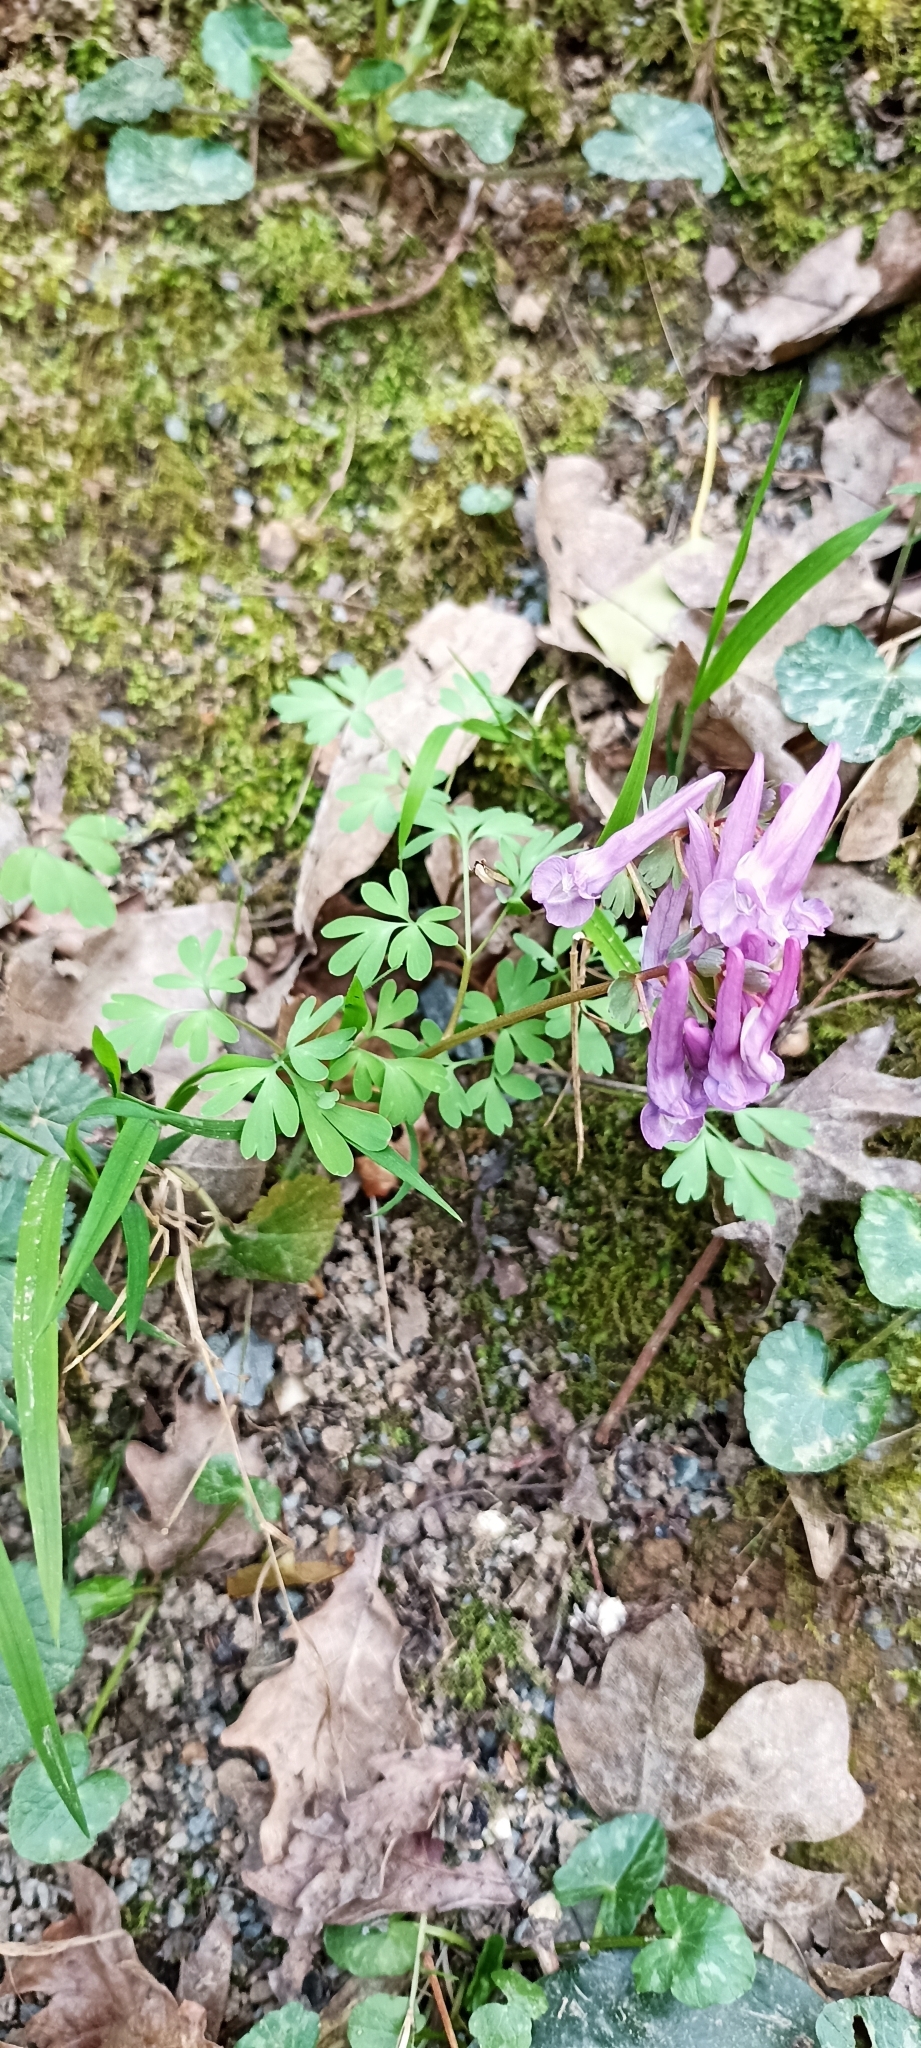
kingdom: Plantae
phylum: Tracheophyta
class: Magnoliopsida
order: Ranunculales
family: Papaveraceae
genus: Corydalis
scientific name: Corydalis solida
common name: Bird-in-a-bush
